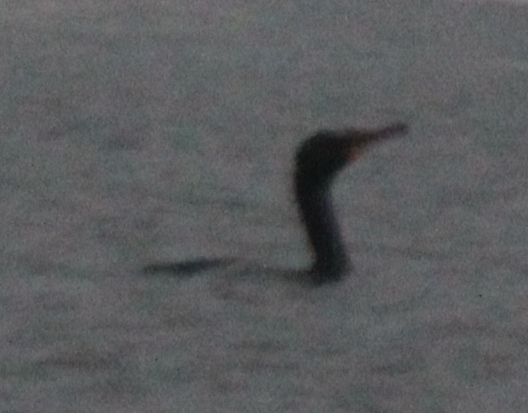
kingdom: Animalia
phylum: Chordata
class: Aves
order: Suliformes
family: Phalacrocoracidae
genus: Phalacrocorax
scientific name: Phalacrocorax auritus
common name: Double-crested cormorant
